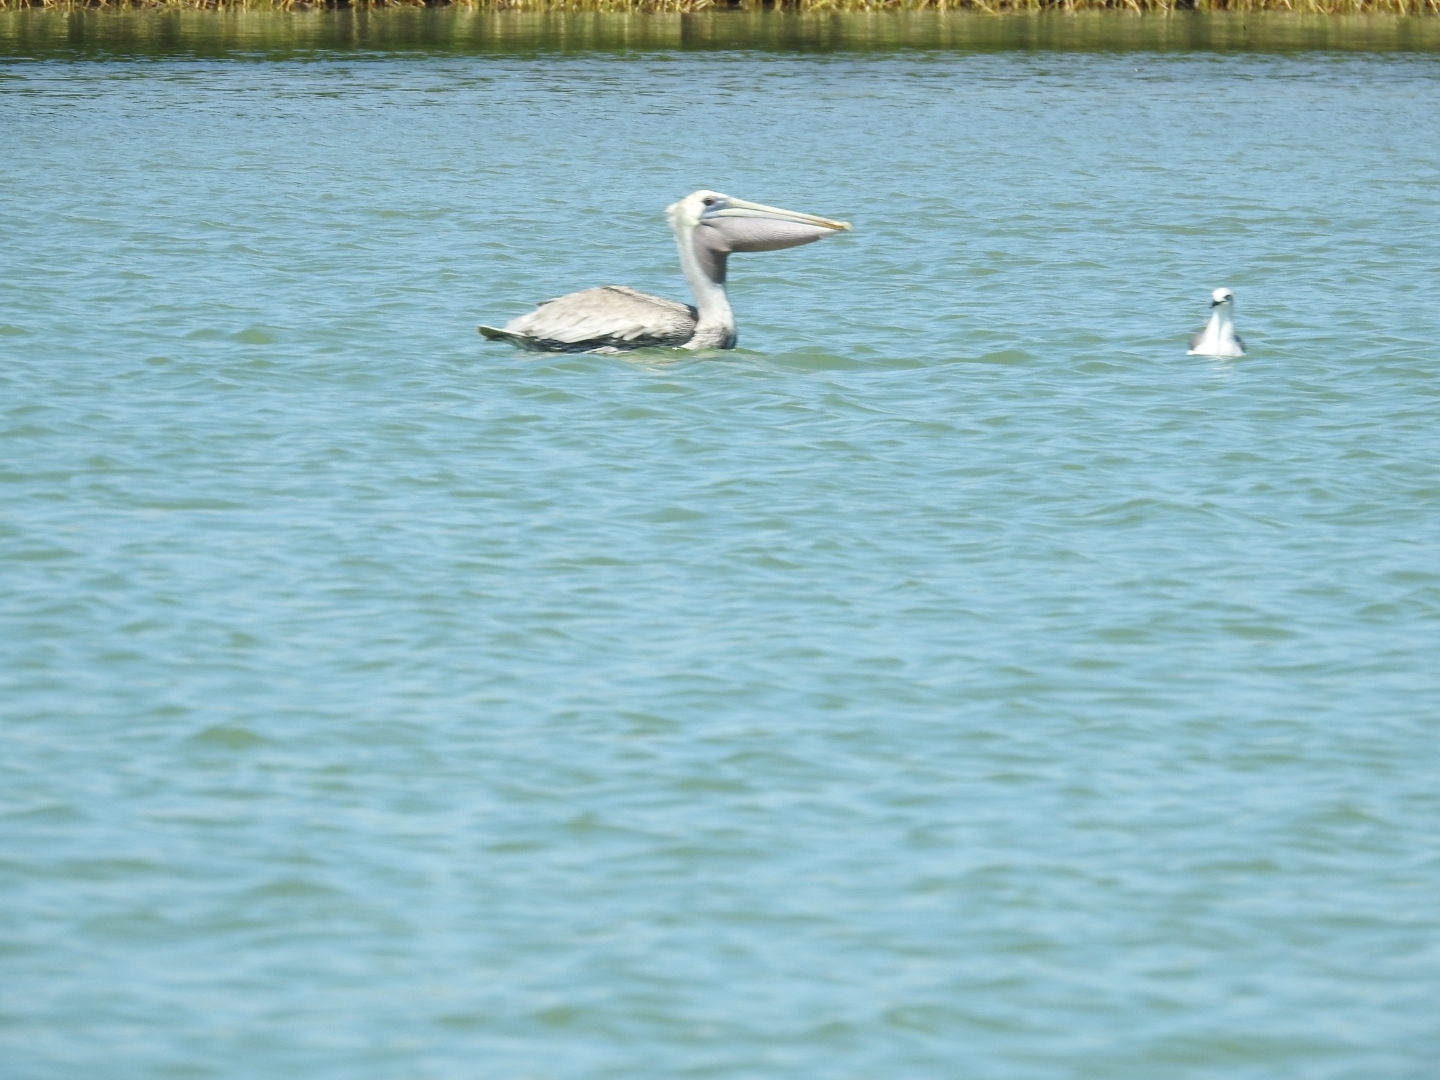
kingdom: Animalia
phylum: Chordata
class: Aves
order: Pelecaniformes
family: Pelecanidae
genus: Pelecanus
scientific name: Pelecanus occidentalis
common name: Brown pelican
